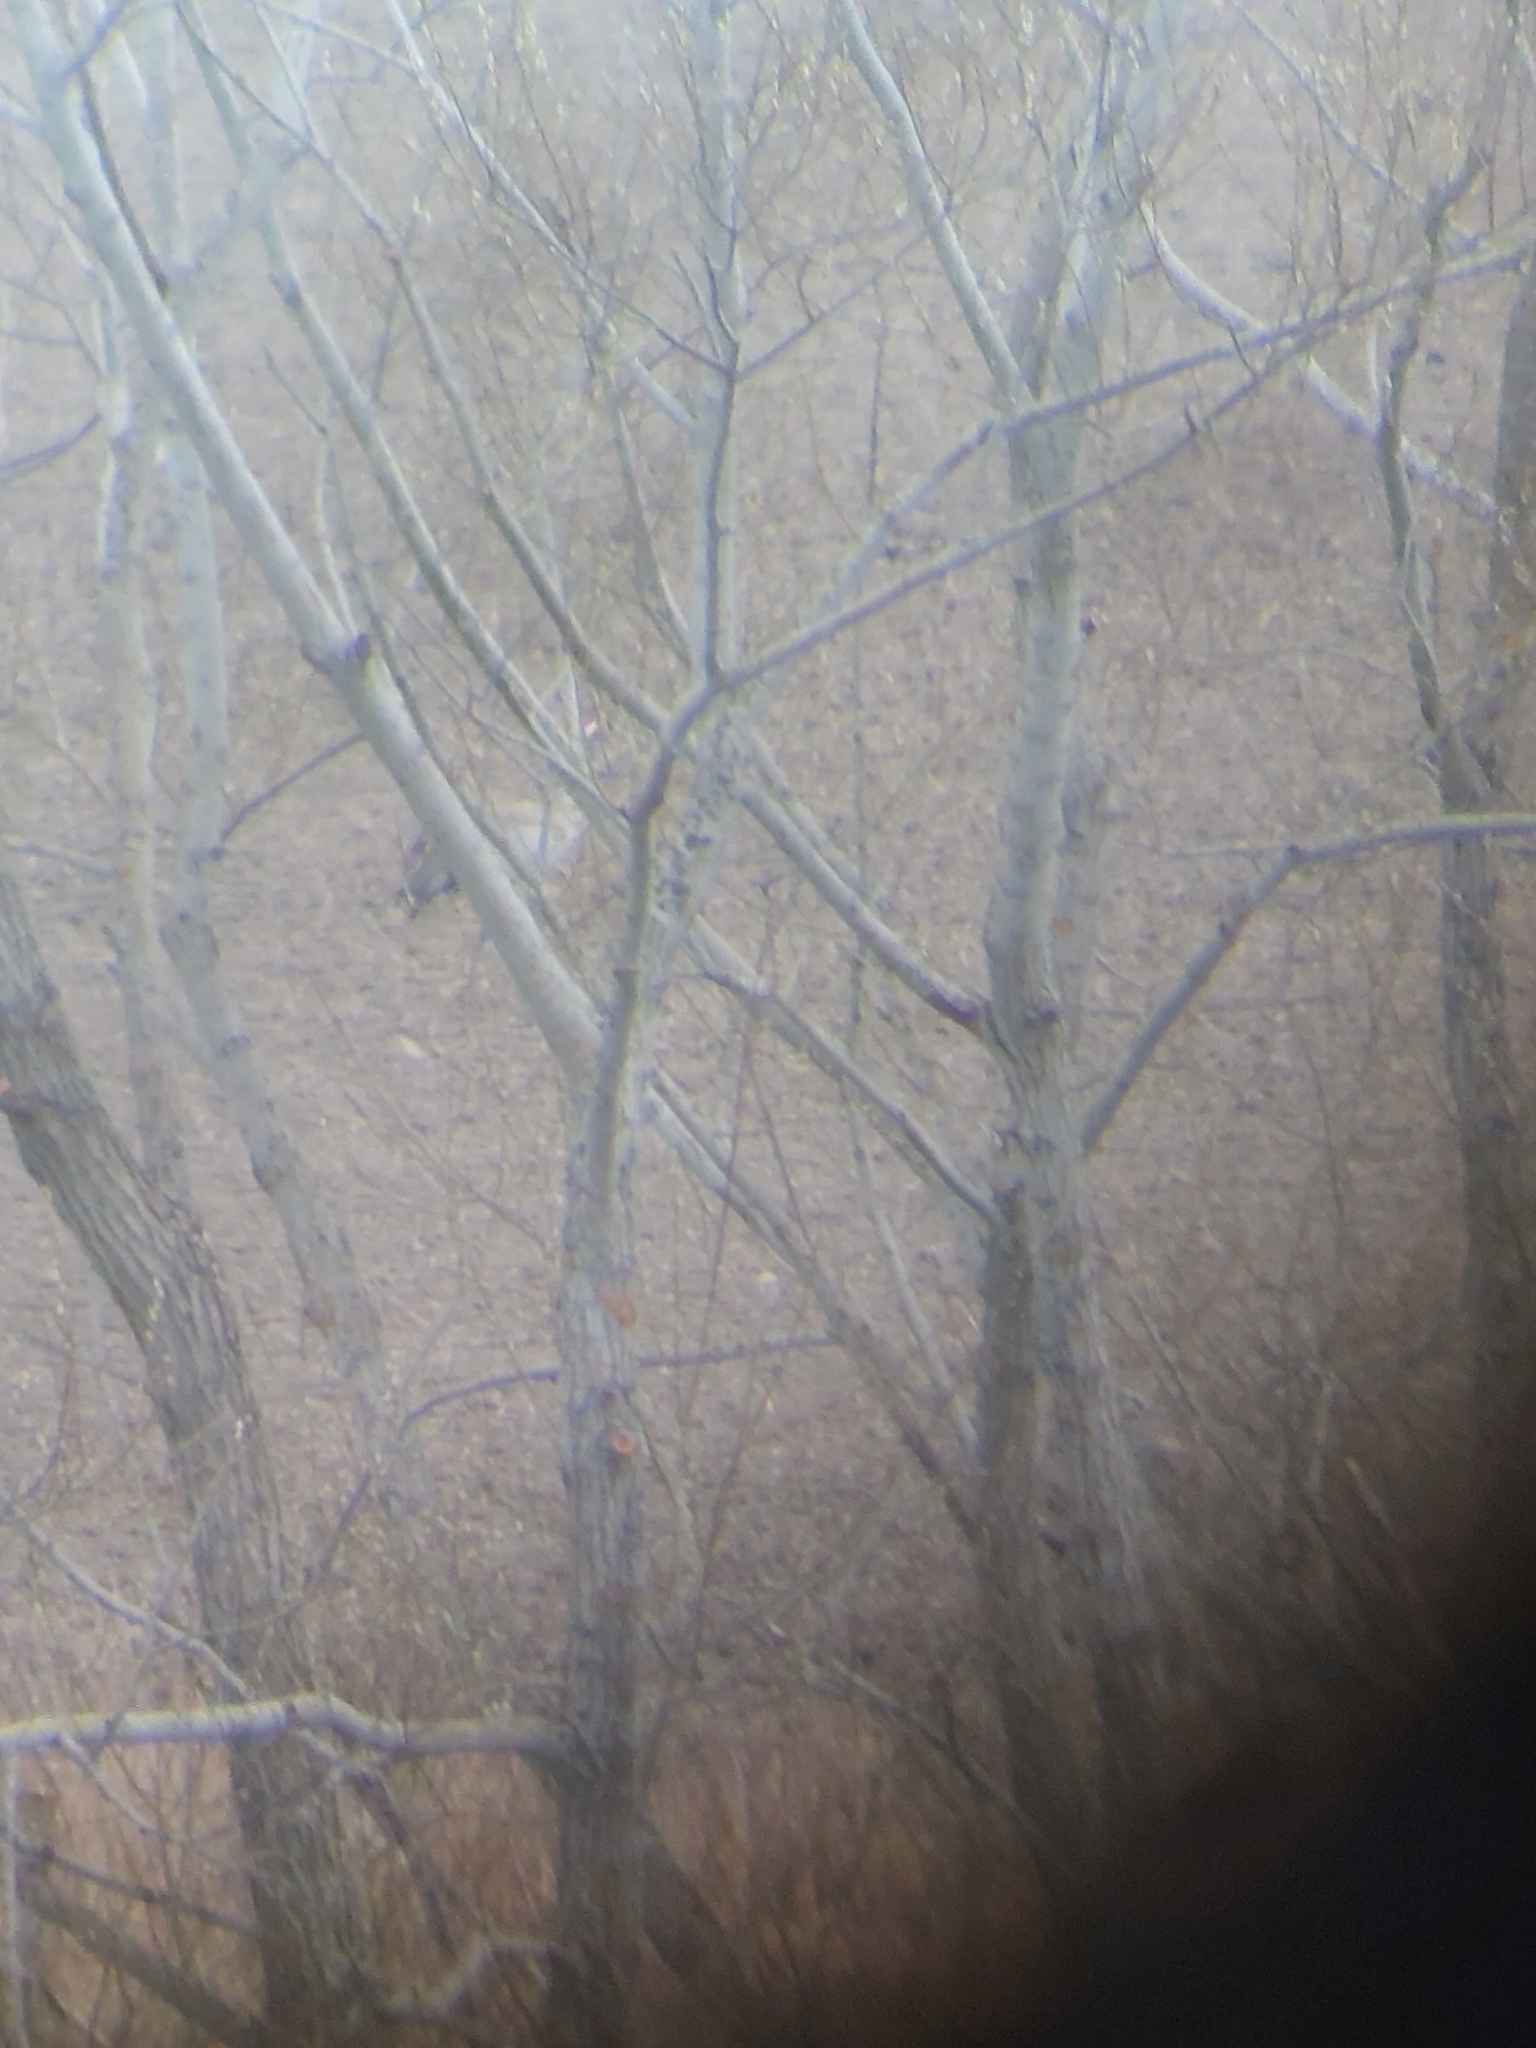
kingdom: Animalia
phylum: Chordata
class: Aves
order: Gruiformes
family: Gruidae
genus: Grus
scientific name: Grus grus
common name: Common crane
